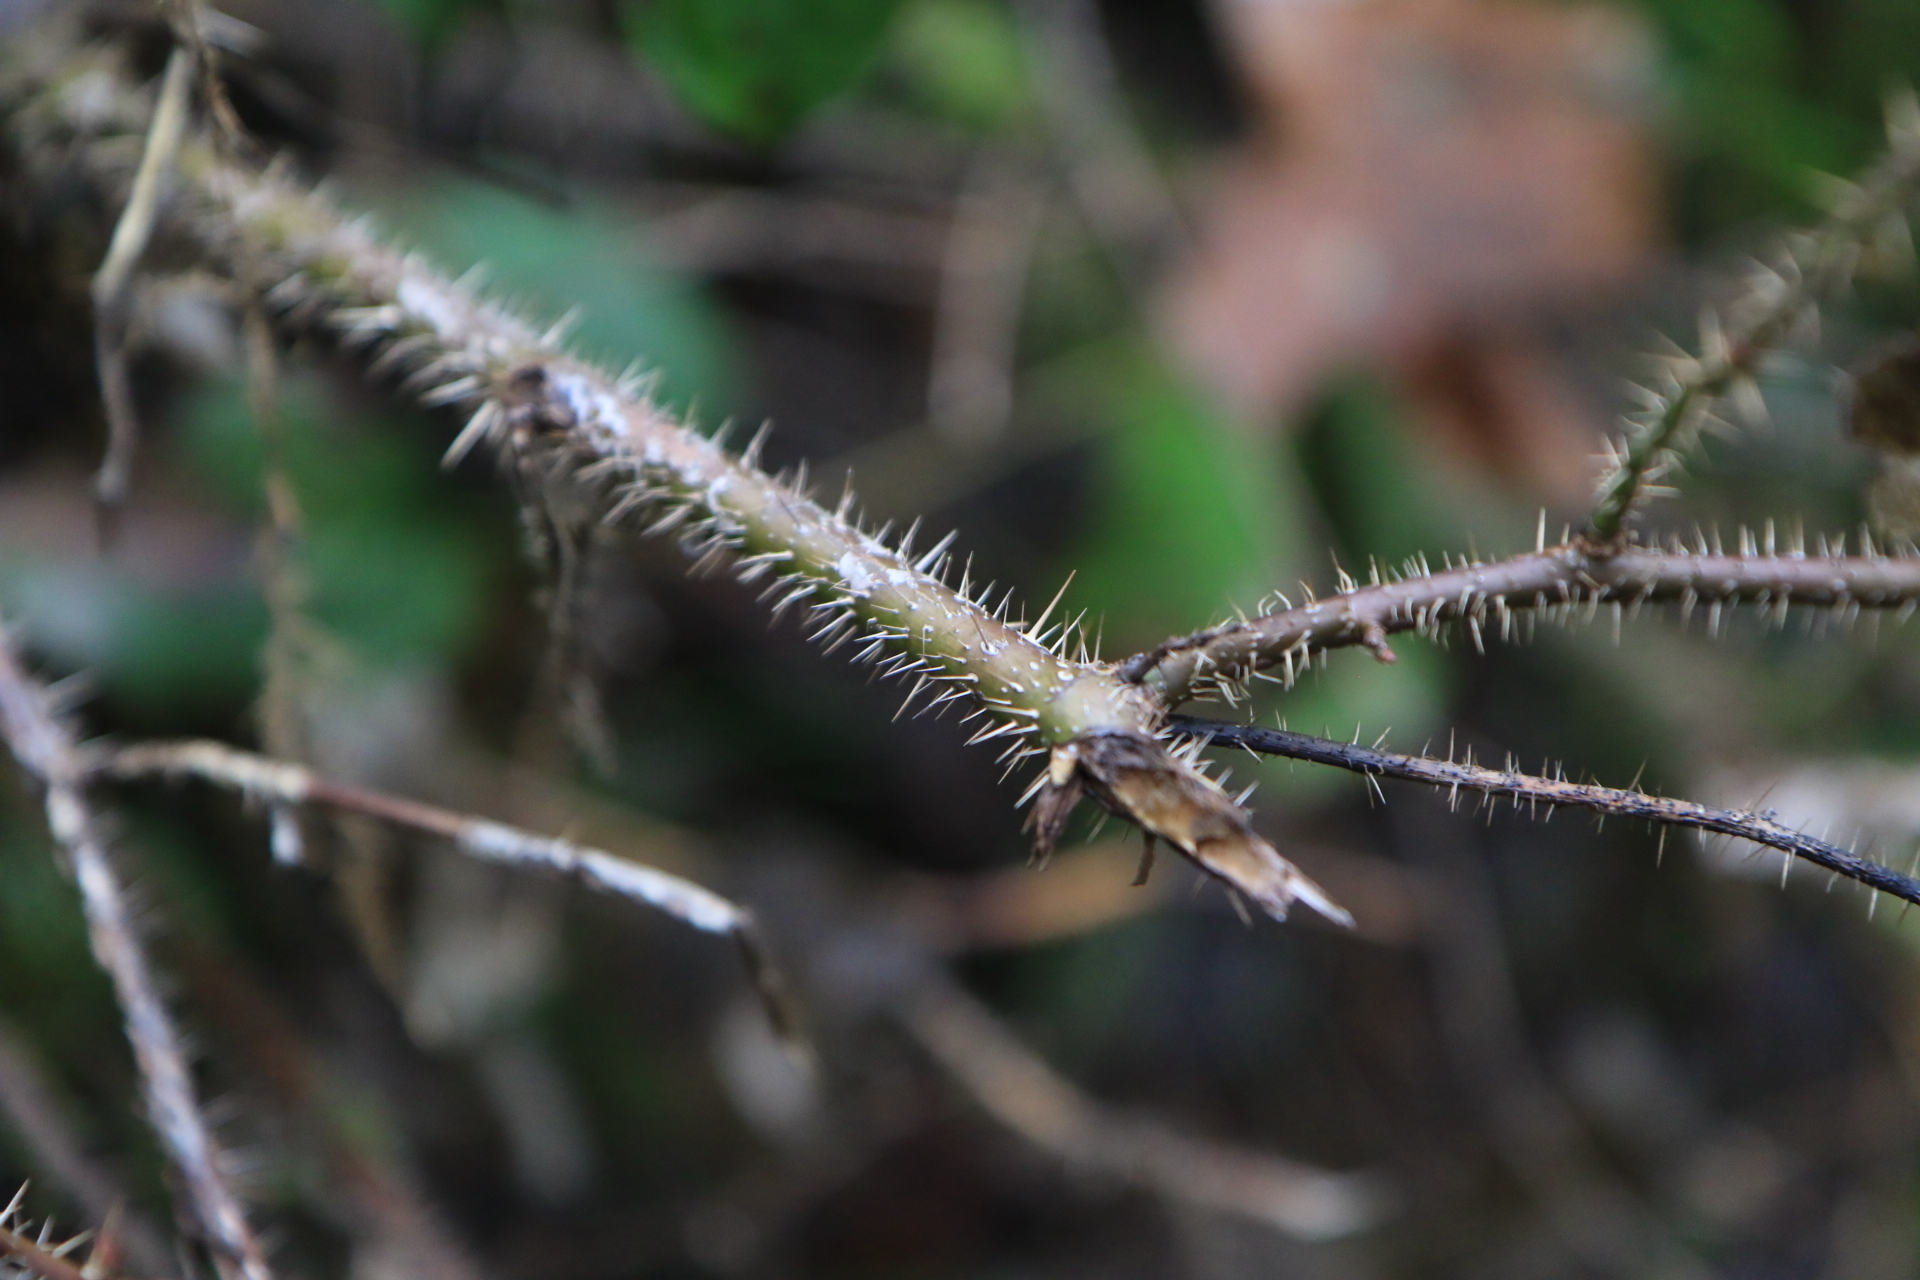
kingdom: Plantae
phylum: Tracheophyta
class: Magnoliopsida
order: Rosales
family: Rosaceae
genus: Rosa
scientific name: Rosa gymnocarpa
